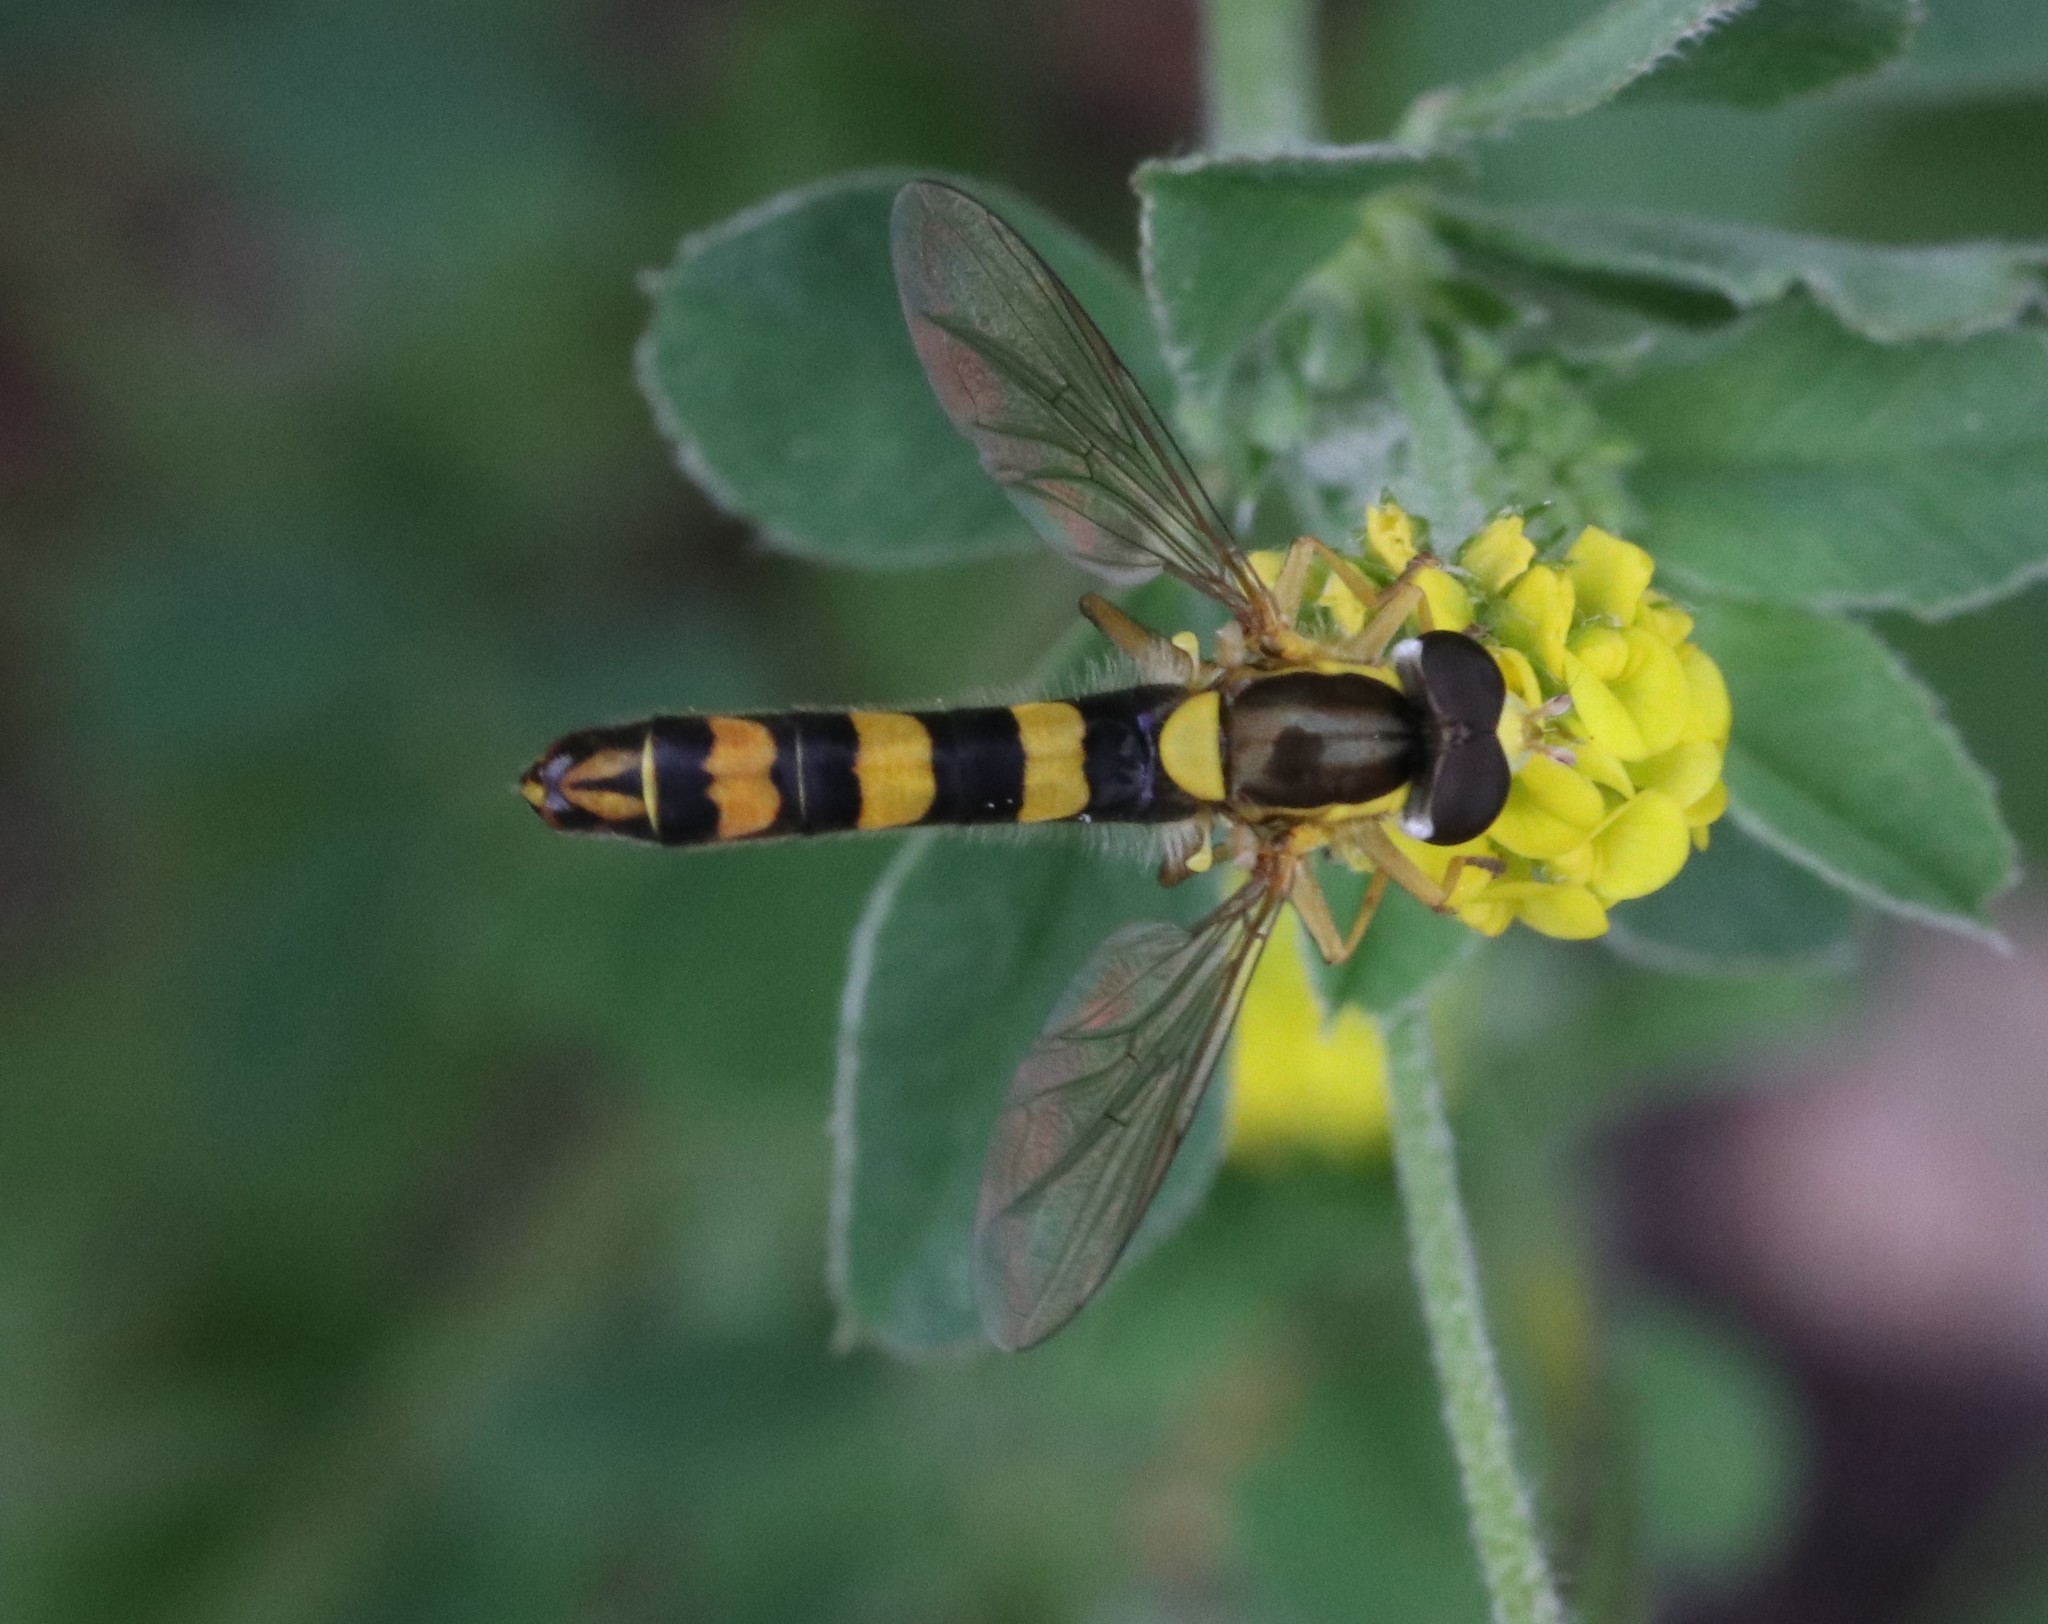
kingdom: Animalia
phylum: Arthropoda
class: Insecta
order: Diptera
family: Syrphidae
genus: Sphaerophoria
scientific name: Sphaerophoria scripta
